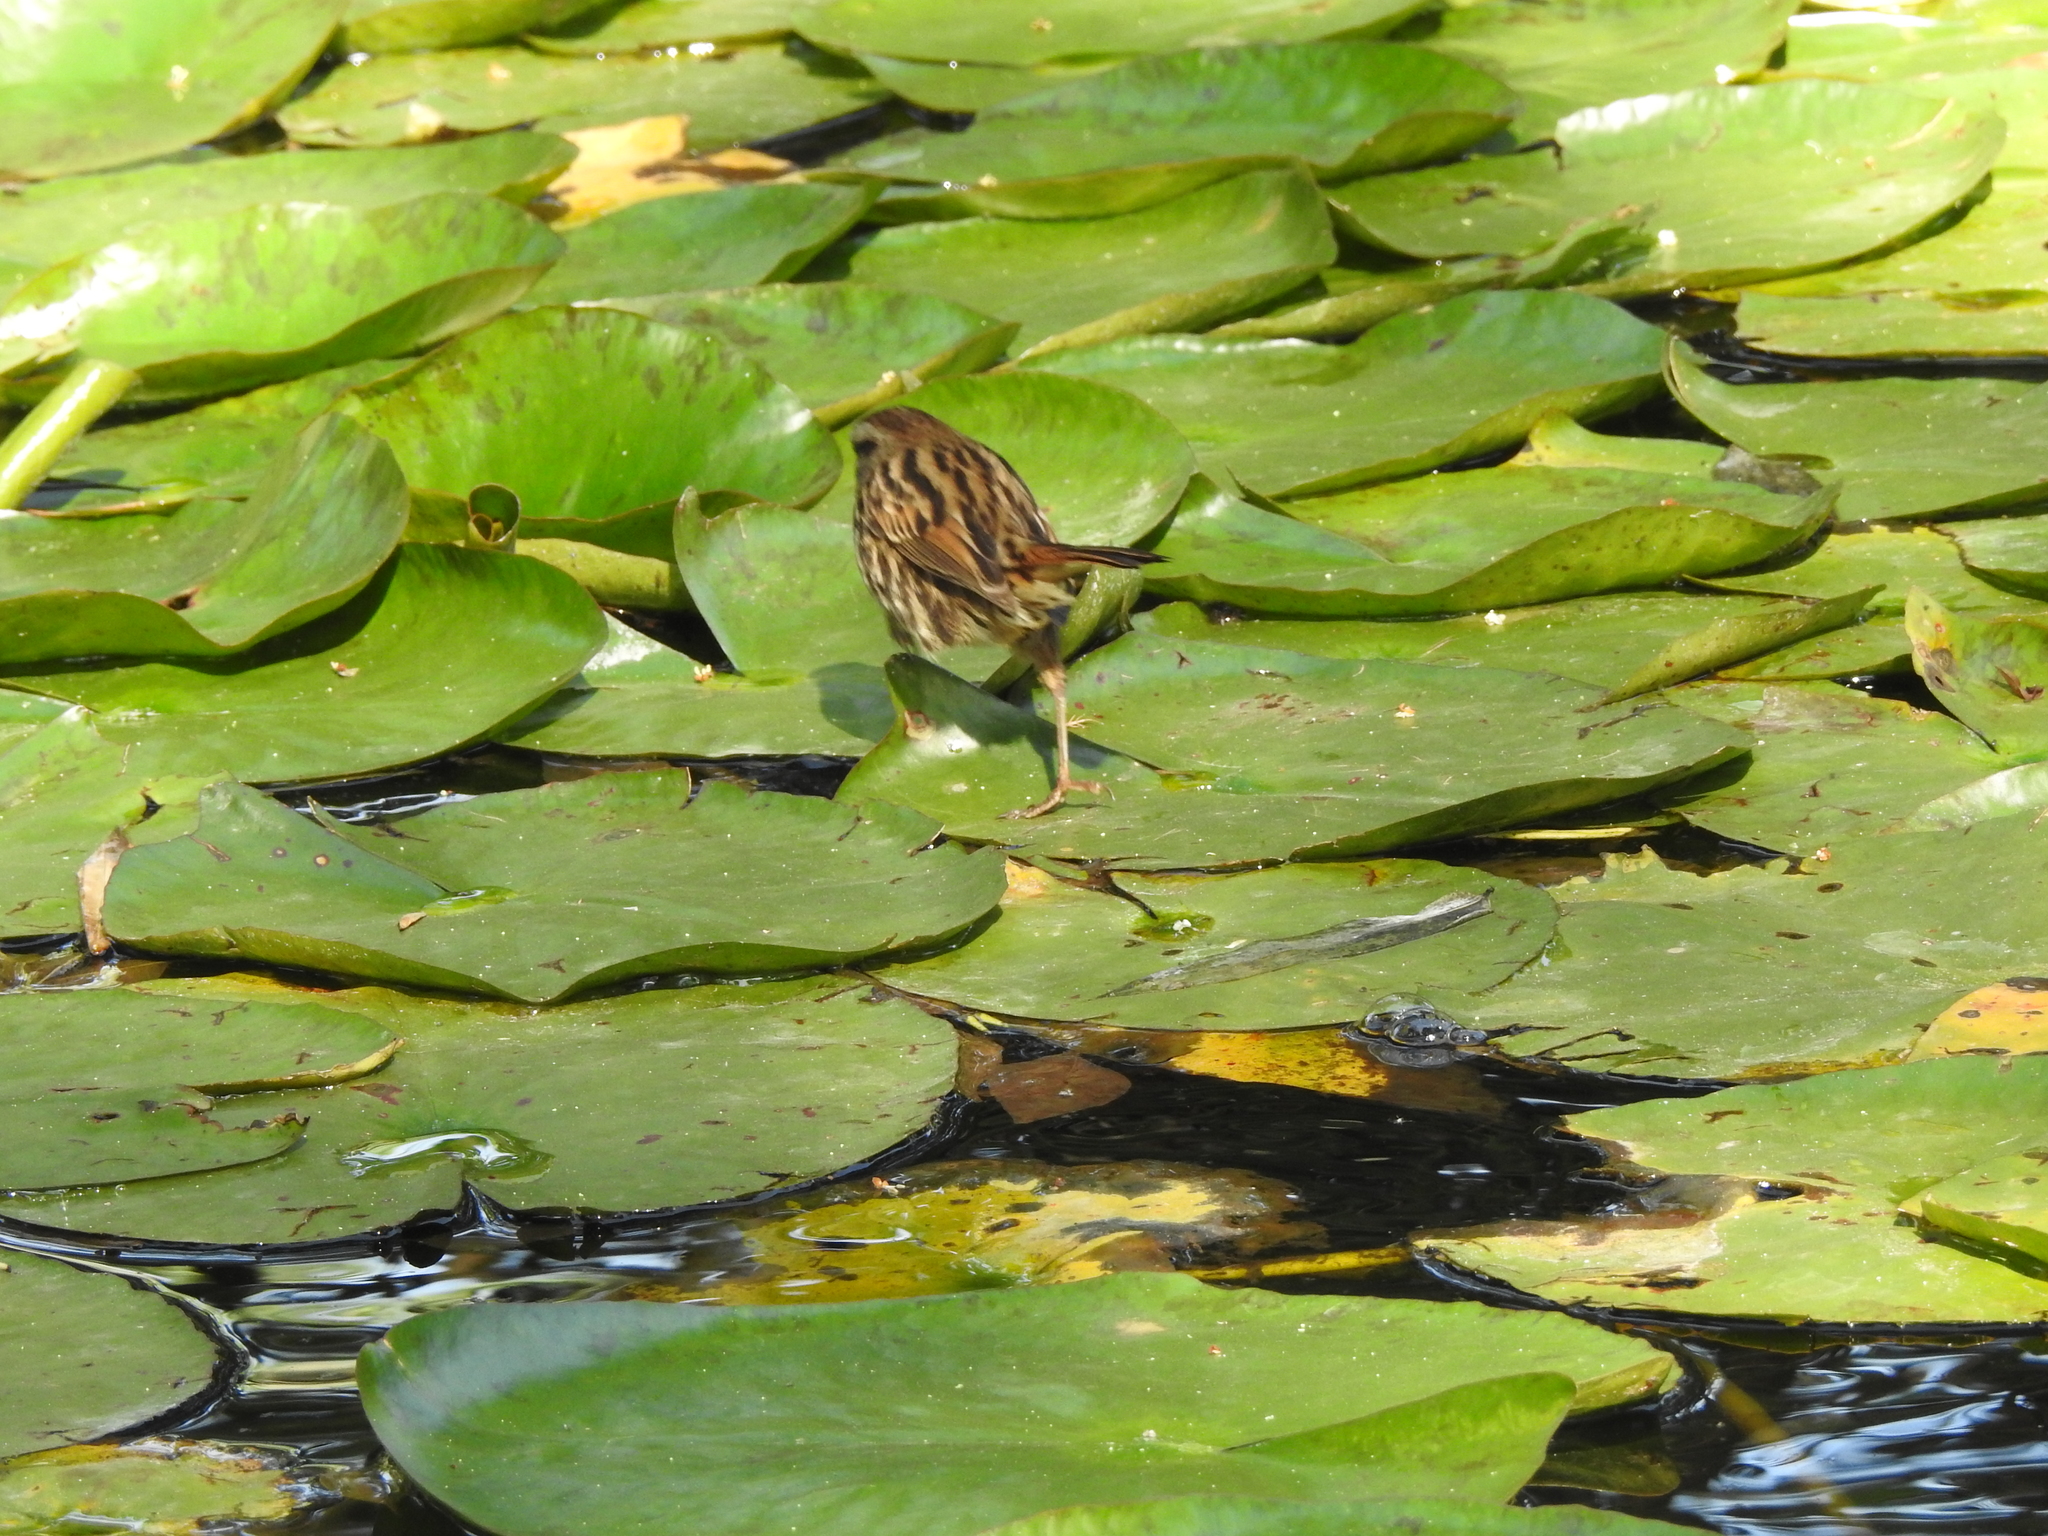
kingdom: Animalia
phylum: Chordata
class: Aves
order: Passeriformes
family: Passerellidae
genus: Melospiza
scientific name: Melospiza melodia
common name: Song sparrow
